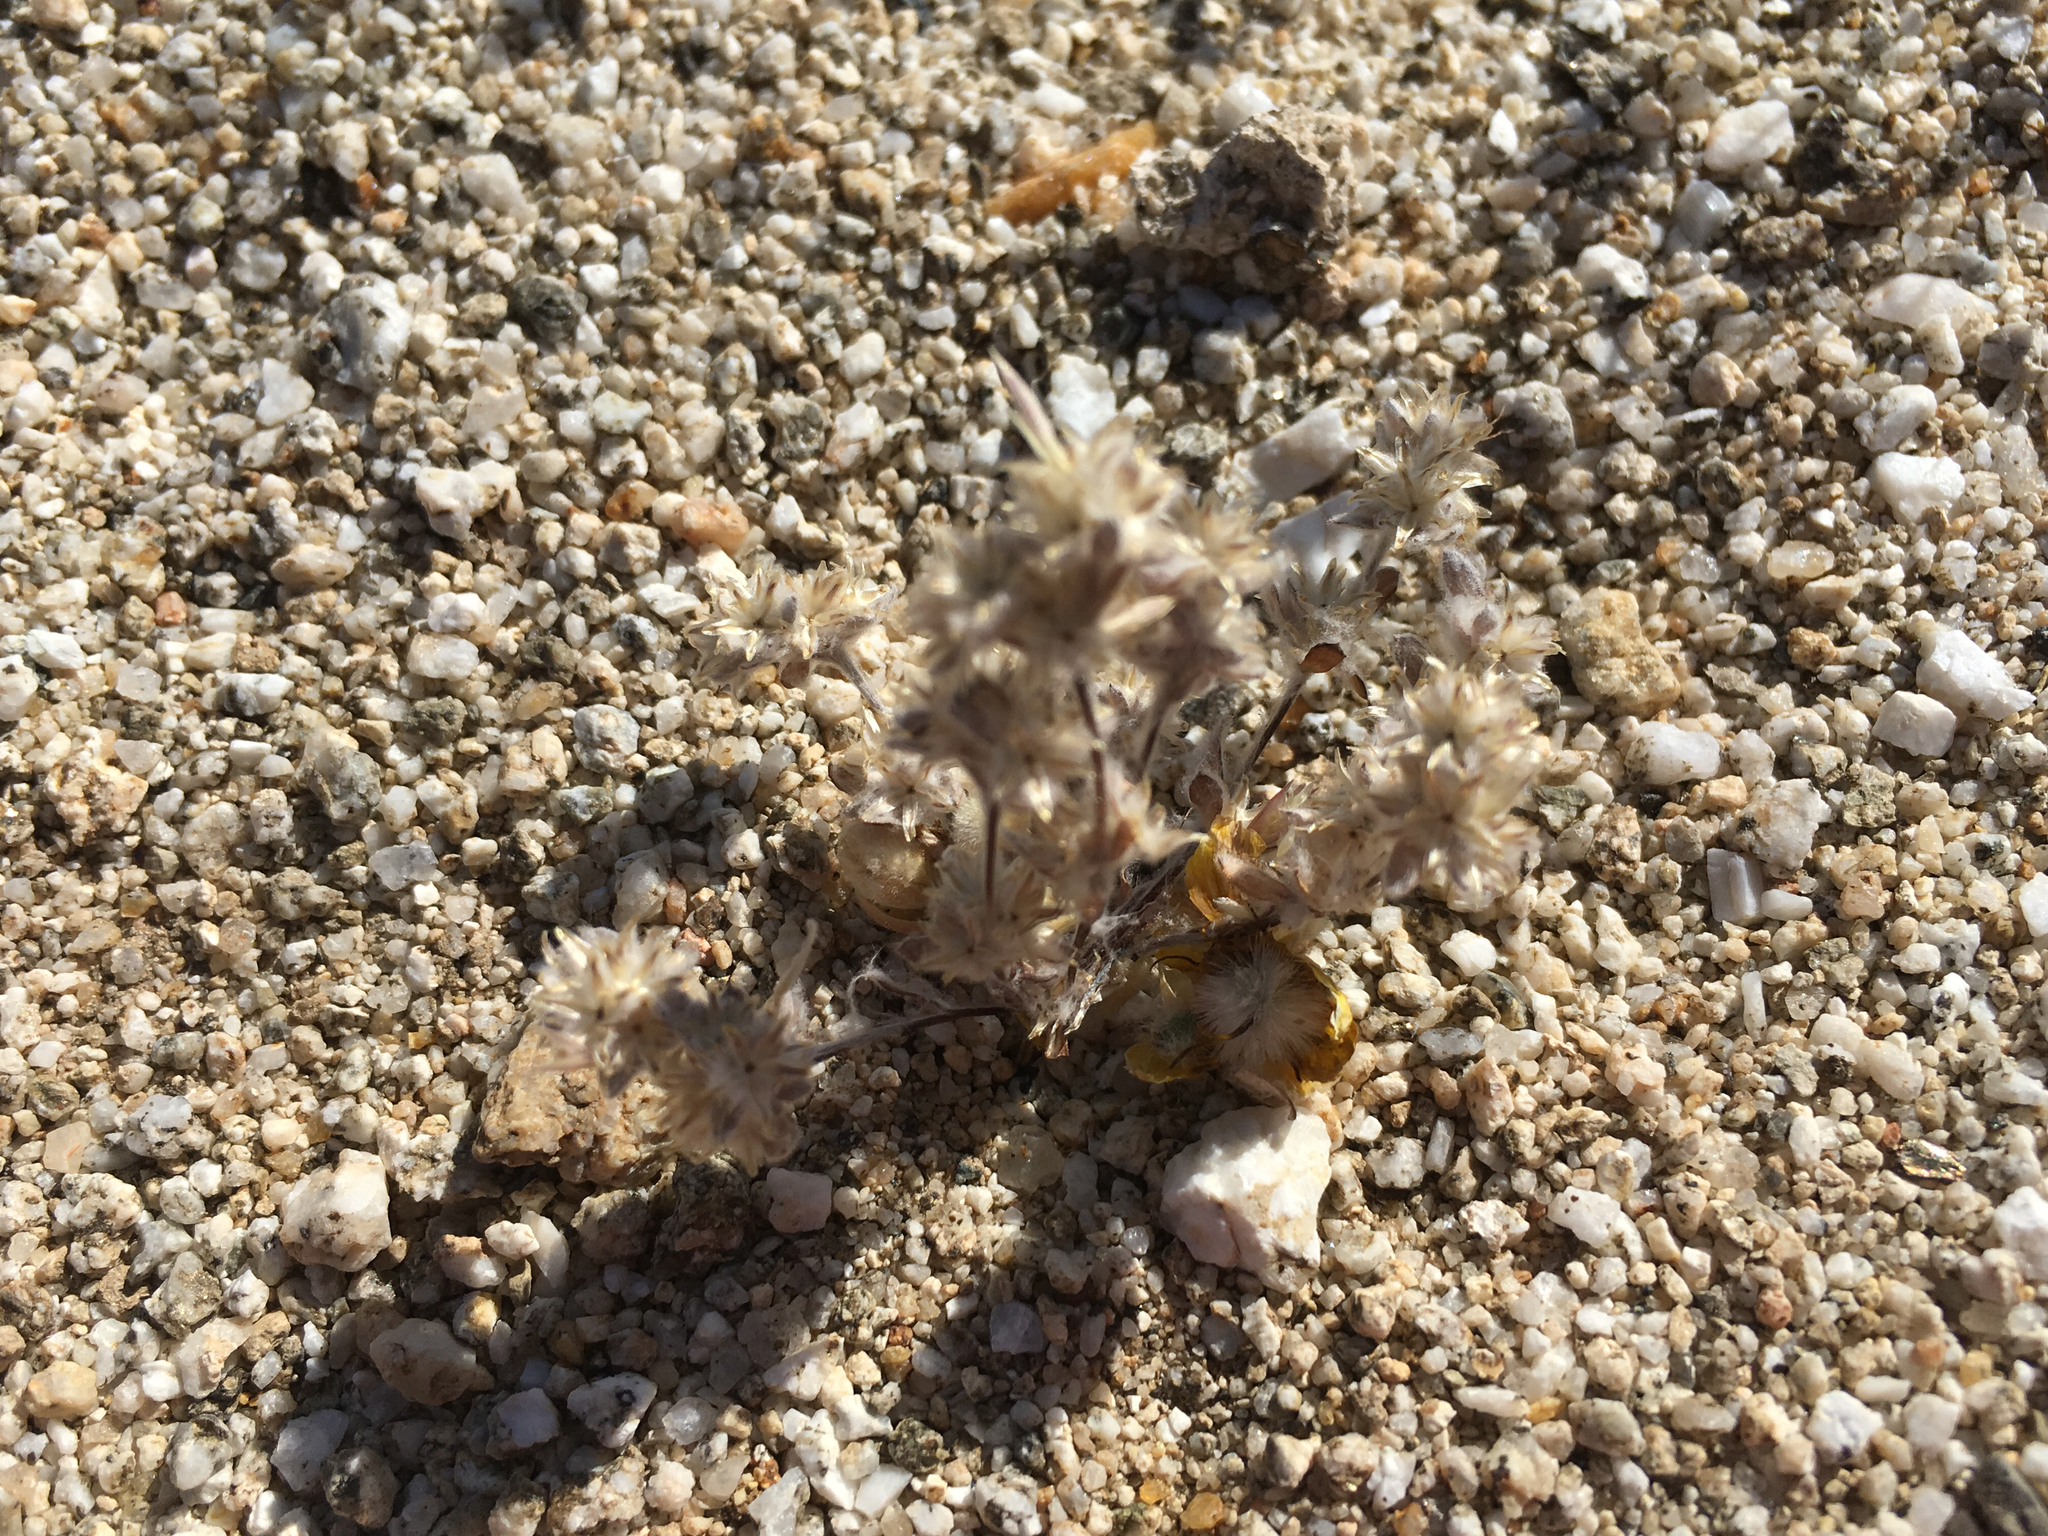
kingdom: Plantae
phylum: Tracheophyta
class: Magnoliopsida
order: Asterales
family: Asteraceae
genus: Logfia
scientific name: Logfia depressa
